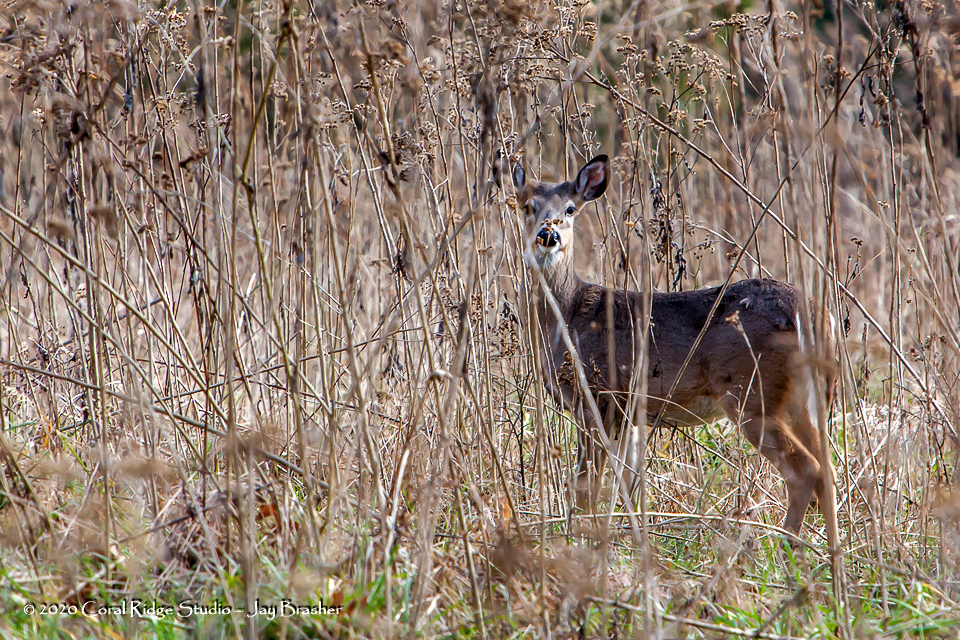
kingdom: Animalia
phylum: Chordata
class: Mammalia
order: Artiodactyla
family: Cervidae
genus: Odocoileus
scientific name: Odocoileus virginianus
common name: White-tailed deer
